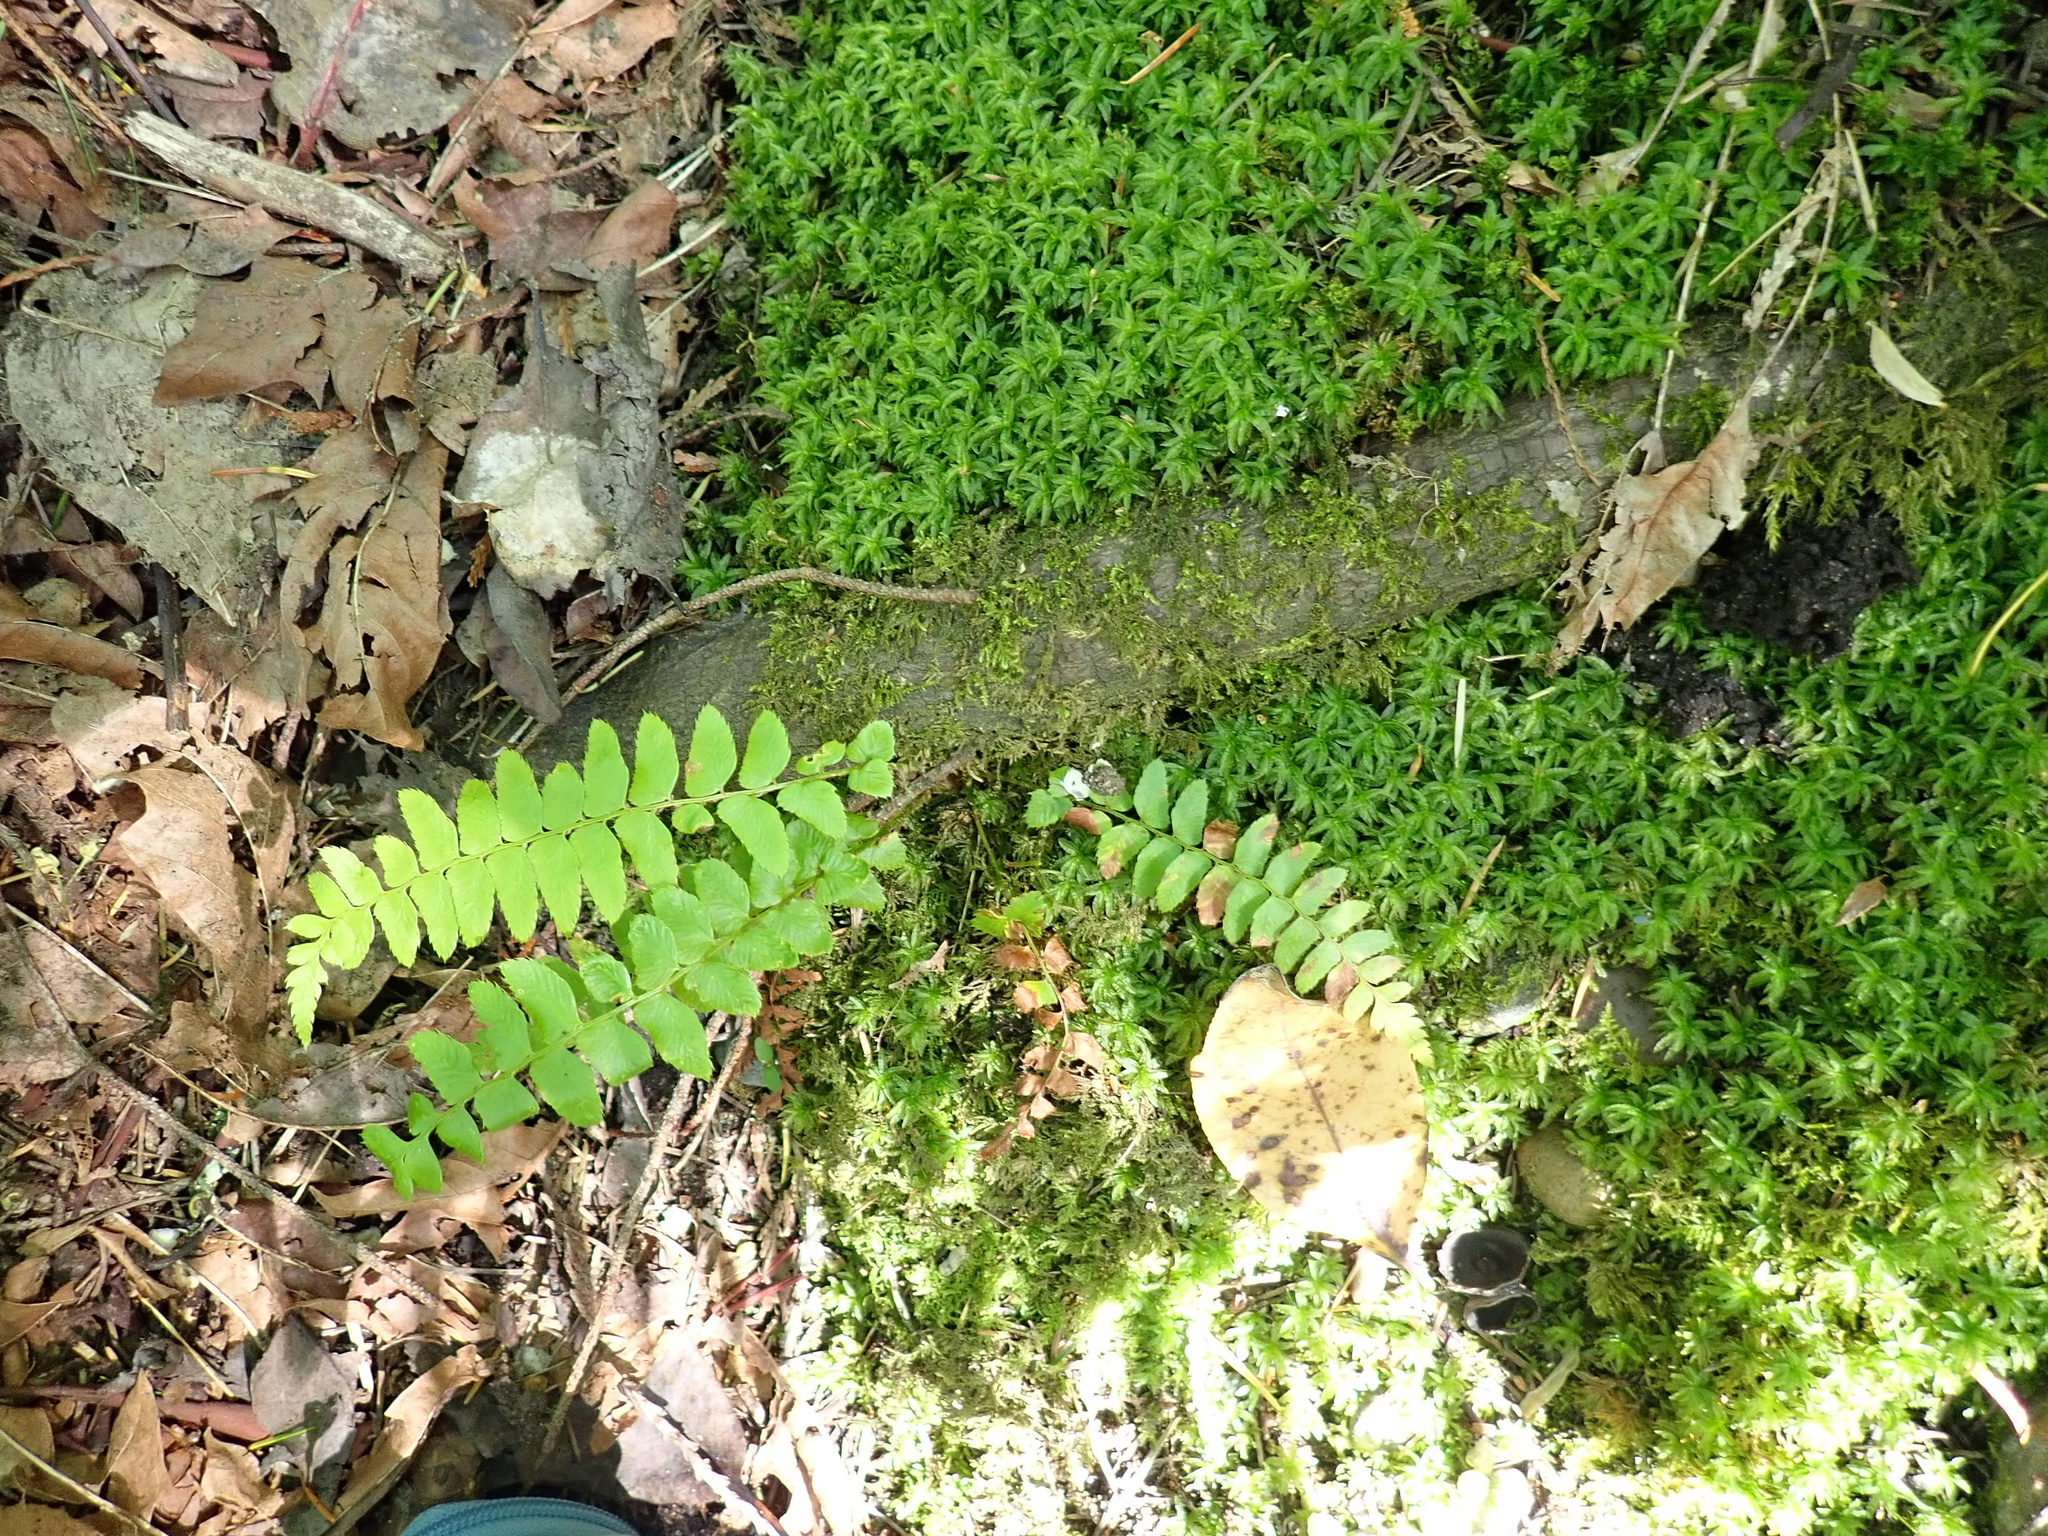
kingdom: Plantae
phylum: Tracheophyta
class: Polypodiopsida
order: Polypodiales
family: Dryopteridaceae
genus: Polystichum
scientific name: Polystichum munitum
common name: Western sword-fern
